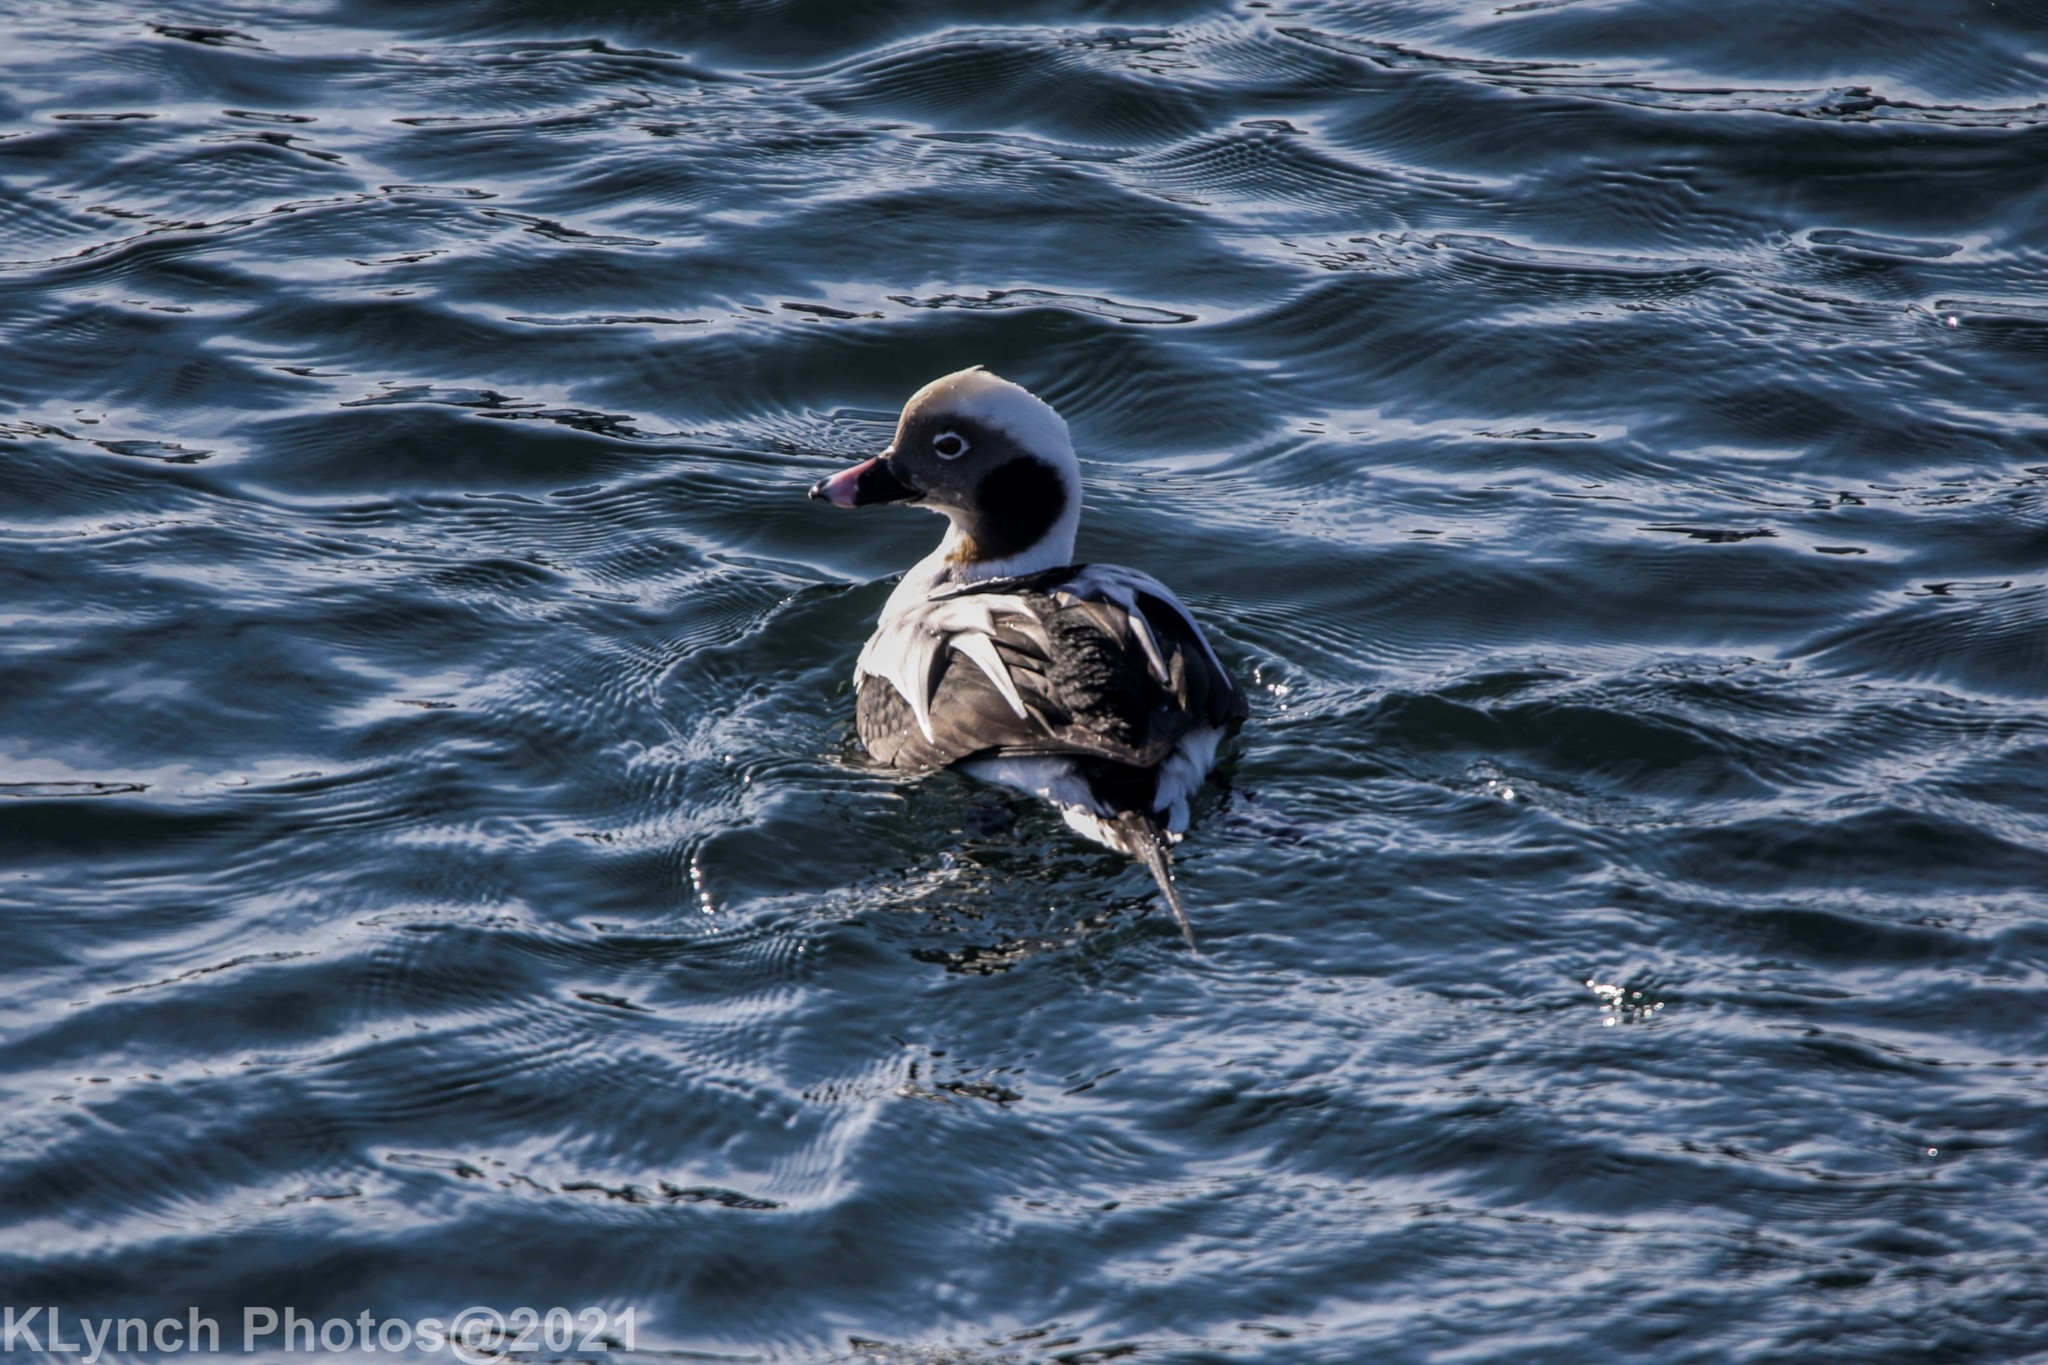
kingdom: Animalia
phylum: Chordata
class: Aves
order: Anseriformes
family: Anatidae
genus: Clangula
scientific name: Clangula hyemalis
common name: Long-tailed duck
